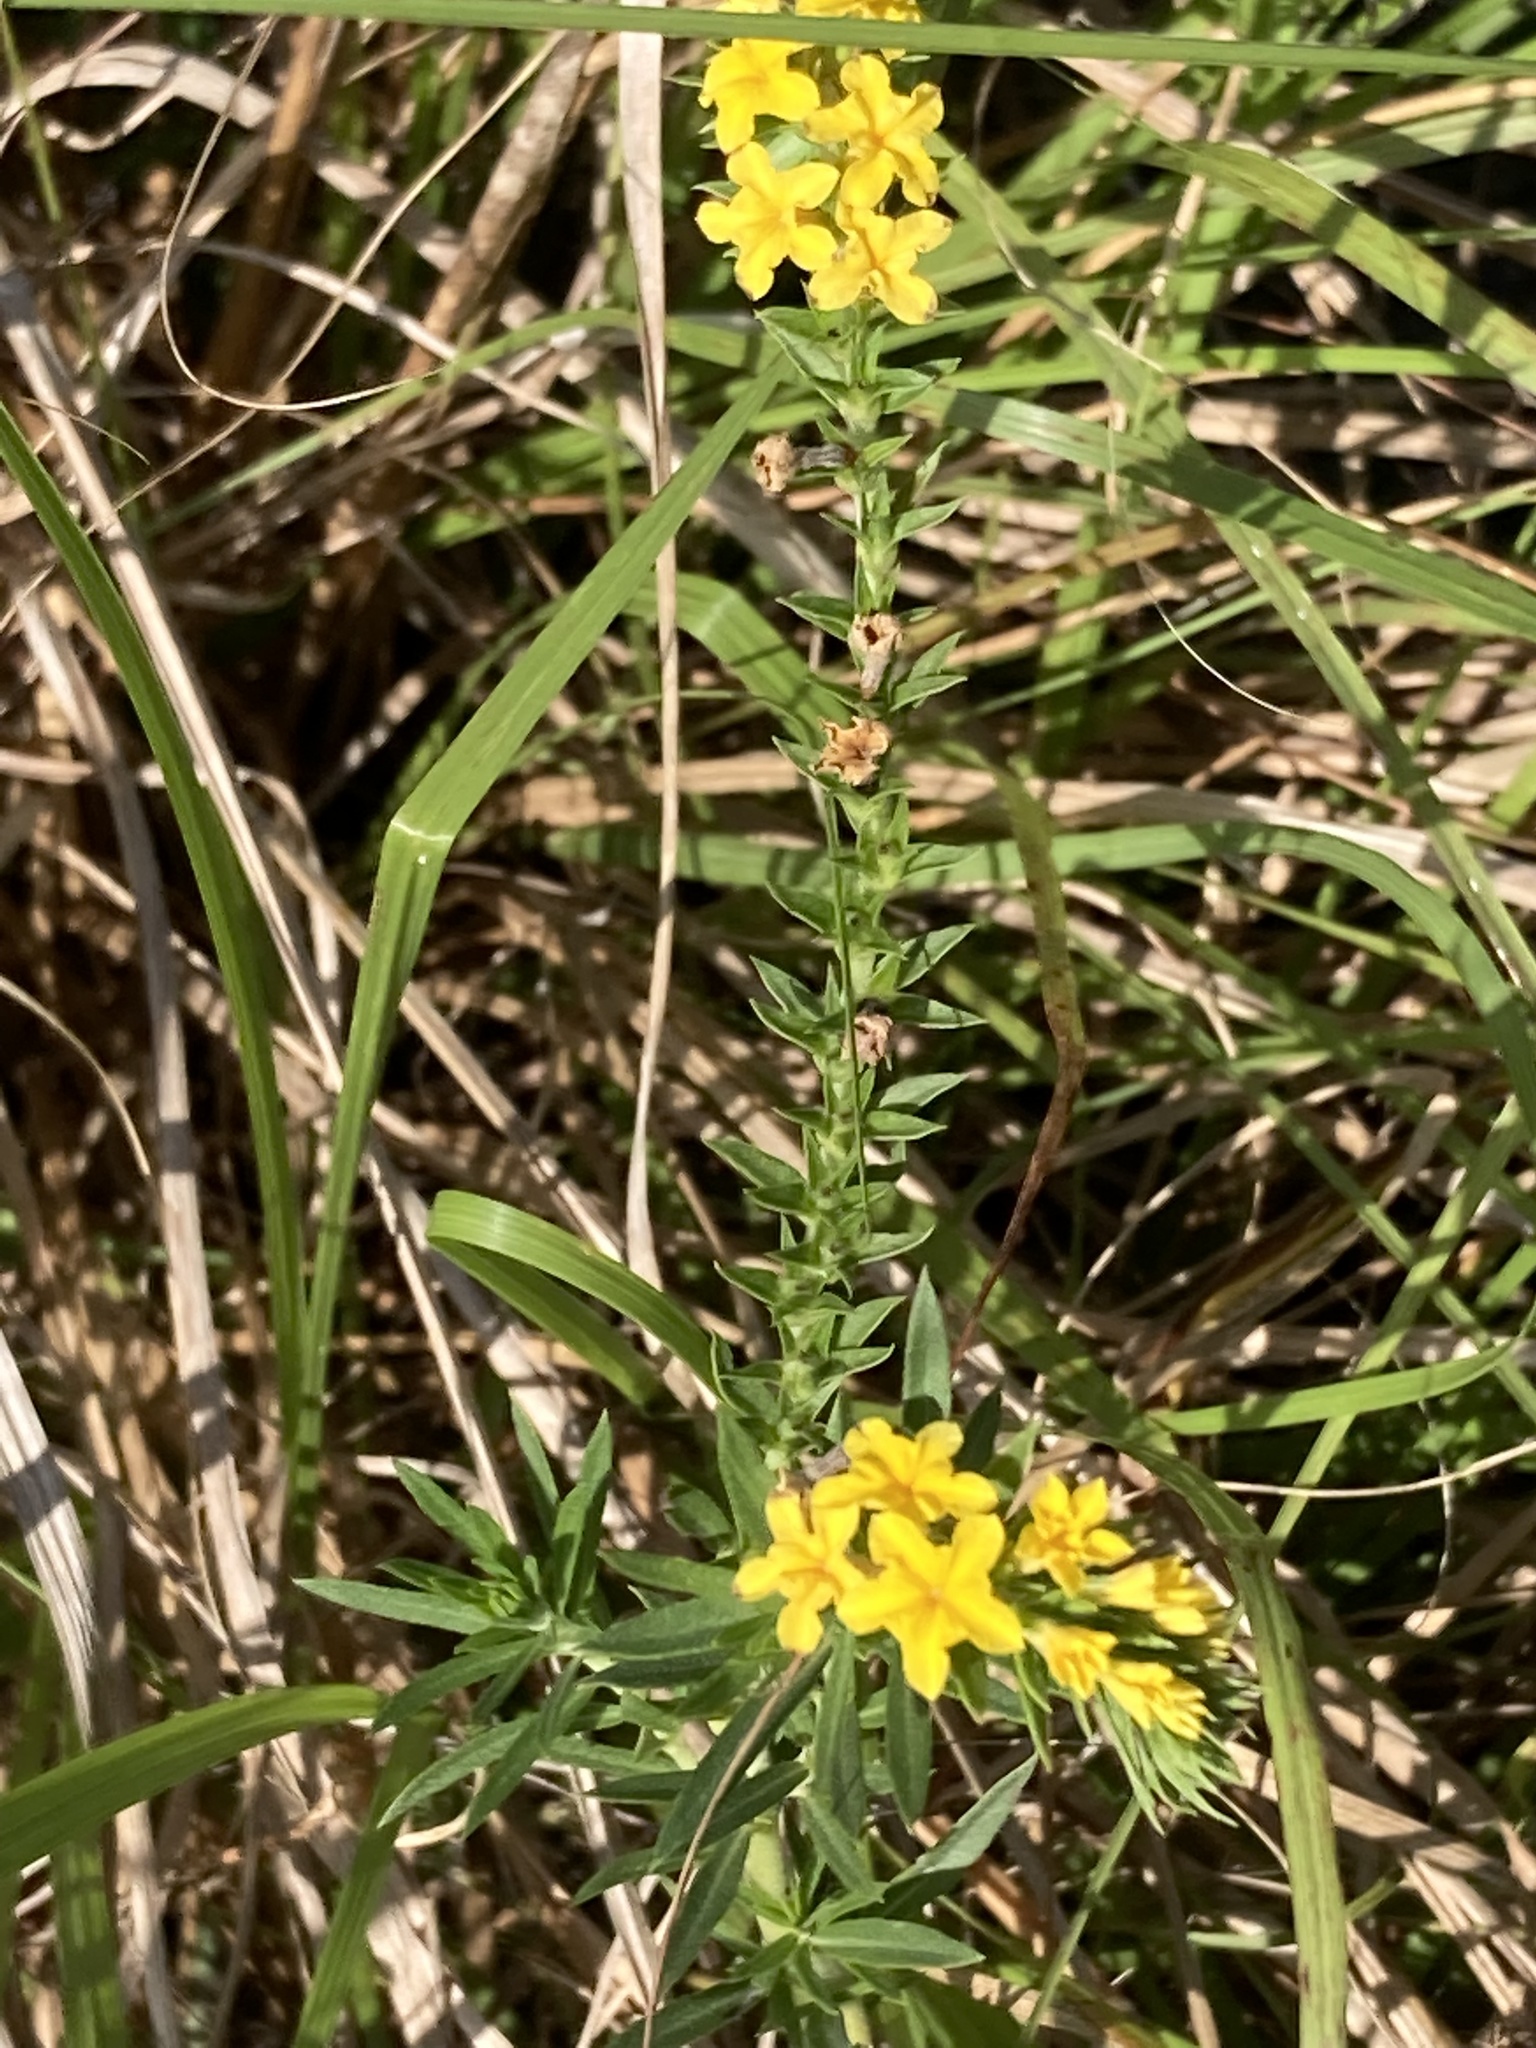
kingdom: Plantae
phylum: Tracheophyta
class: Magnoliopsida
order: Boraginales
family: Heliotropiaceae
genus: Euploca
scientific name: Euploca polyphylla
